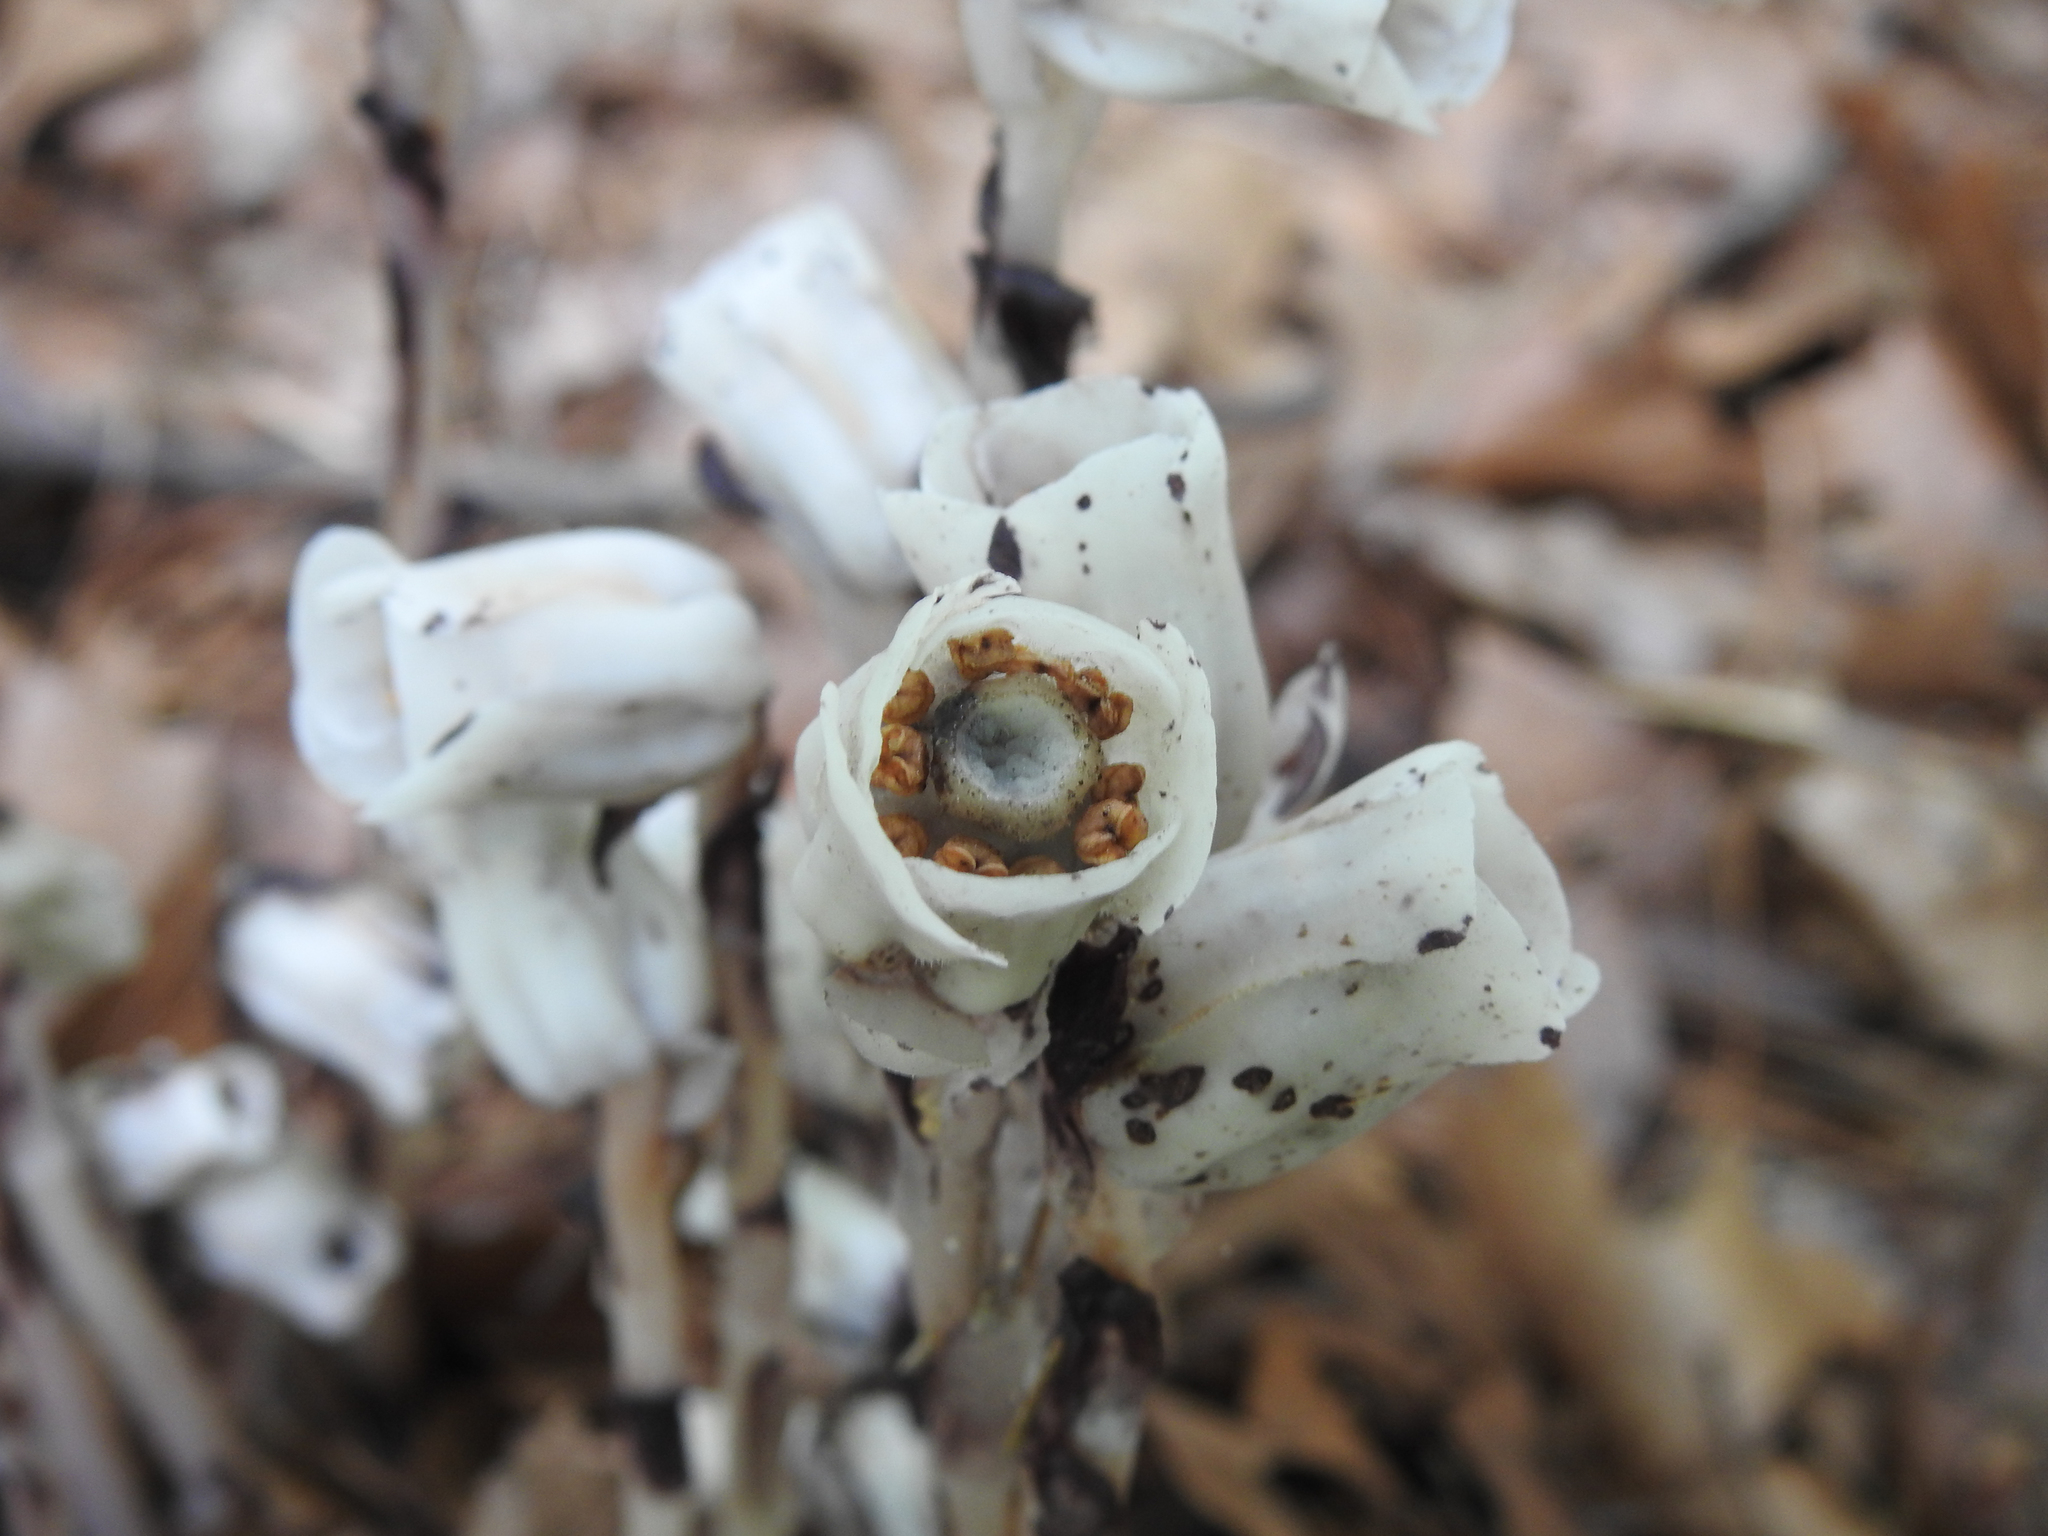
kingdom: Plantae
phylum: Tracheophyta
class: Magnoliopsida
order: Ericales
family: Ericaceae
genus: Monotropa
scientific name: Monotropa uniflora
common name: Convulsion root
